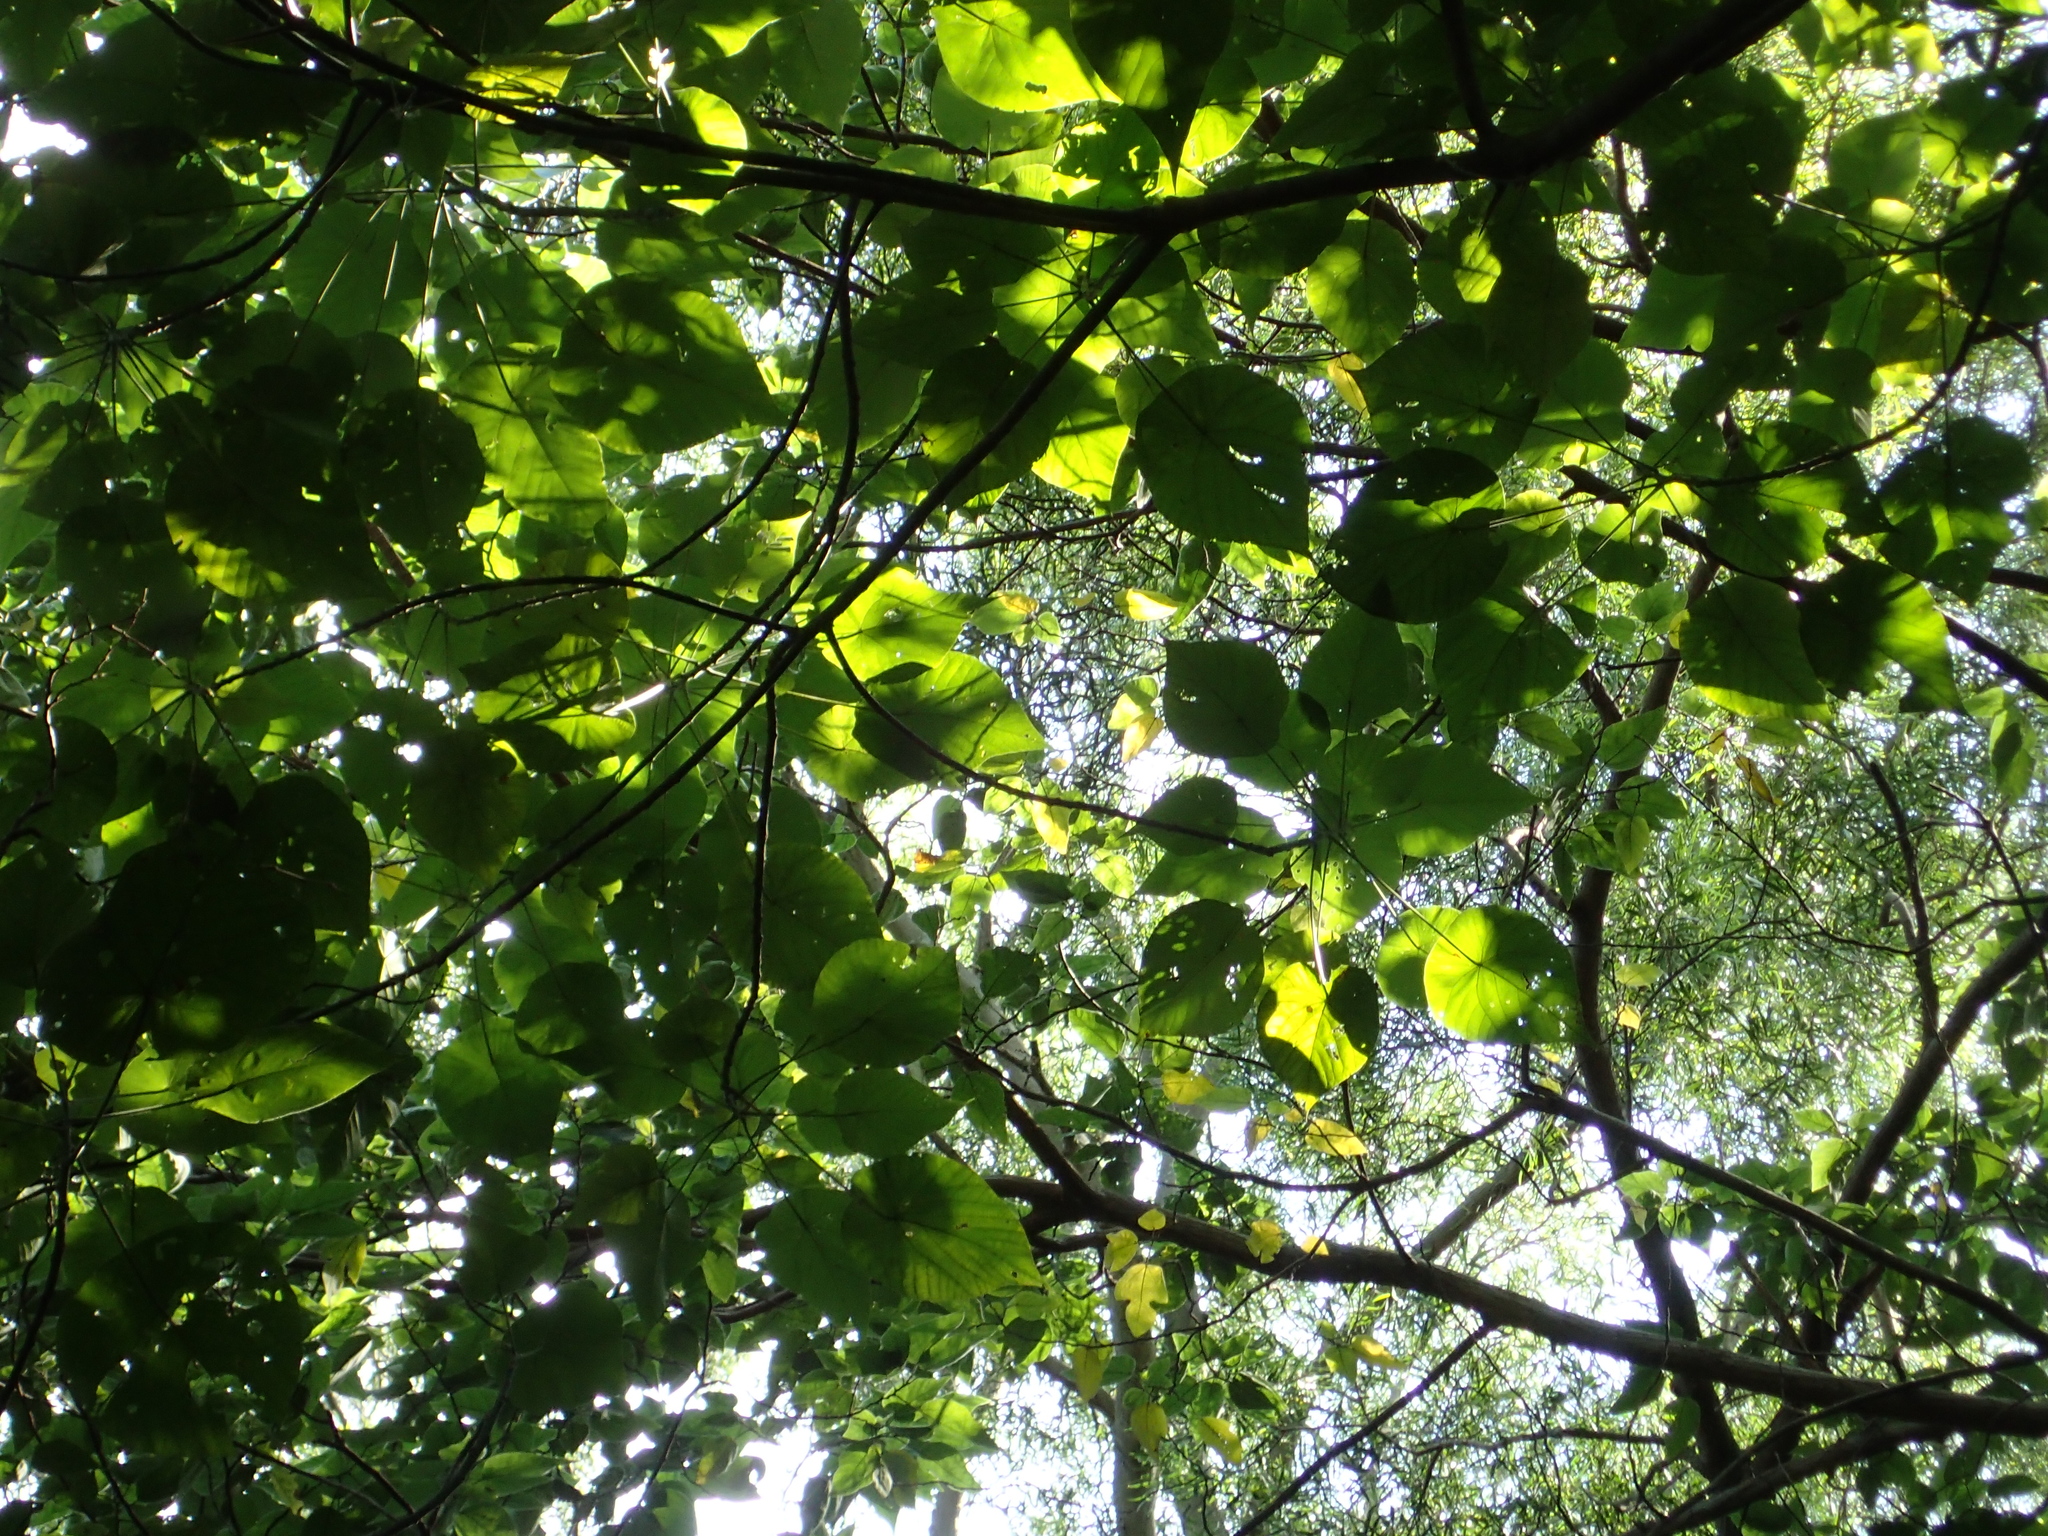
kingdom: Plantae
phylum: Tracheophyta
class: Magnoliopsida
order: Malpighiales
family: Euphorbiaceae
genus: Macaranga
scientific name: Macaranga tanarius
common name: Parasol leaf tree
